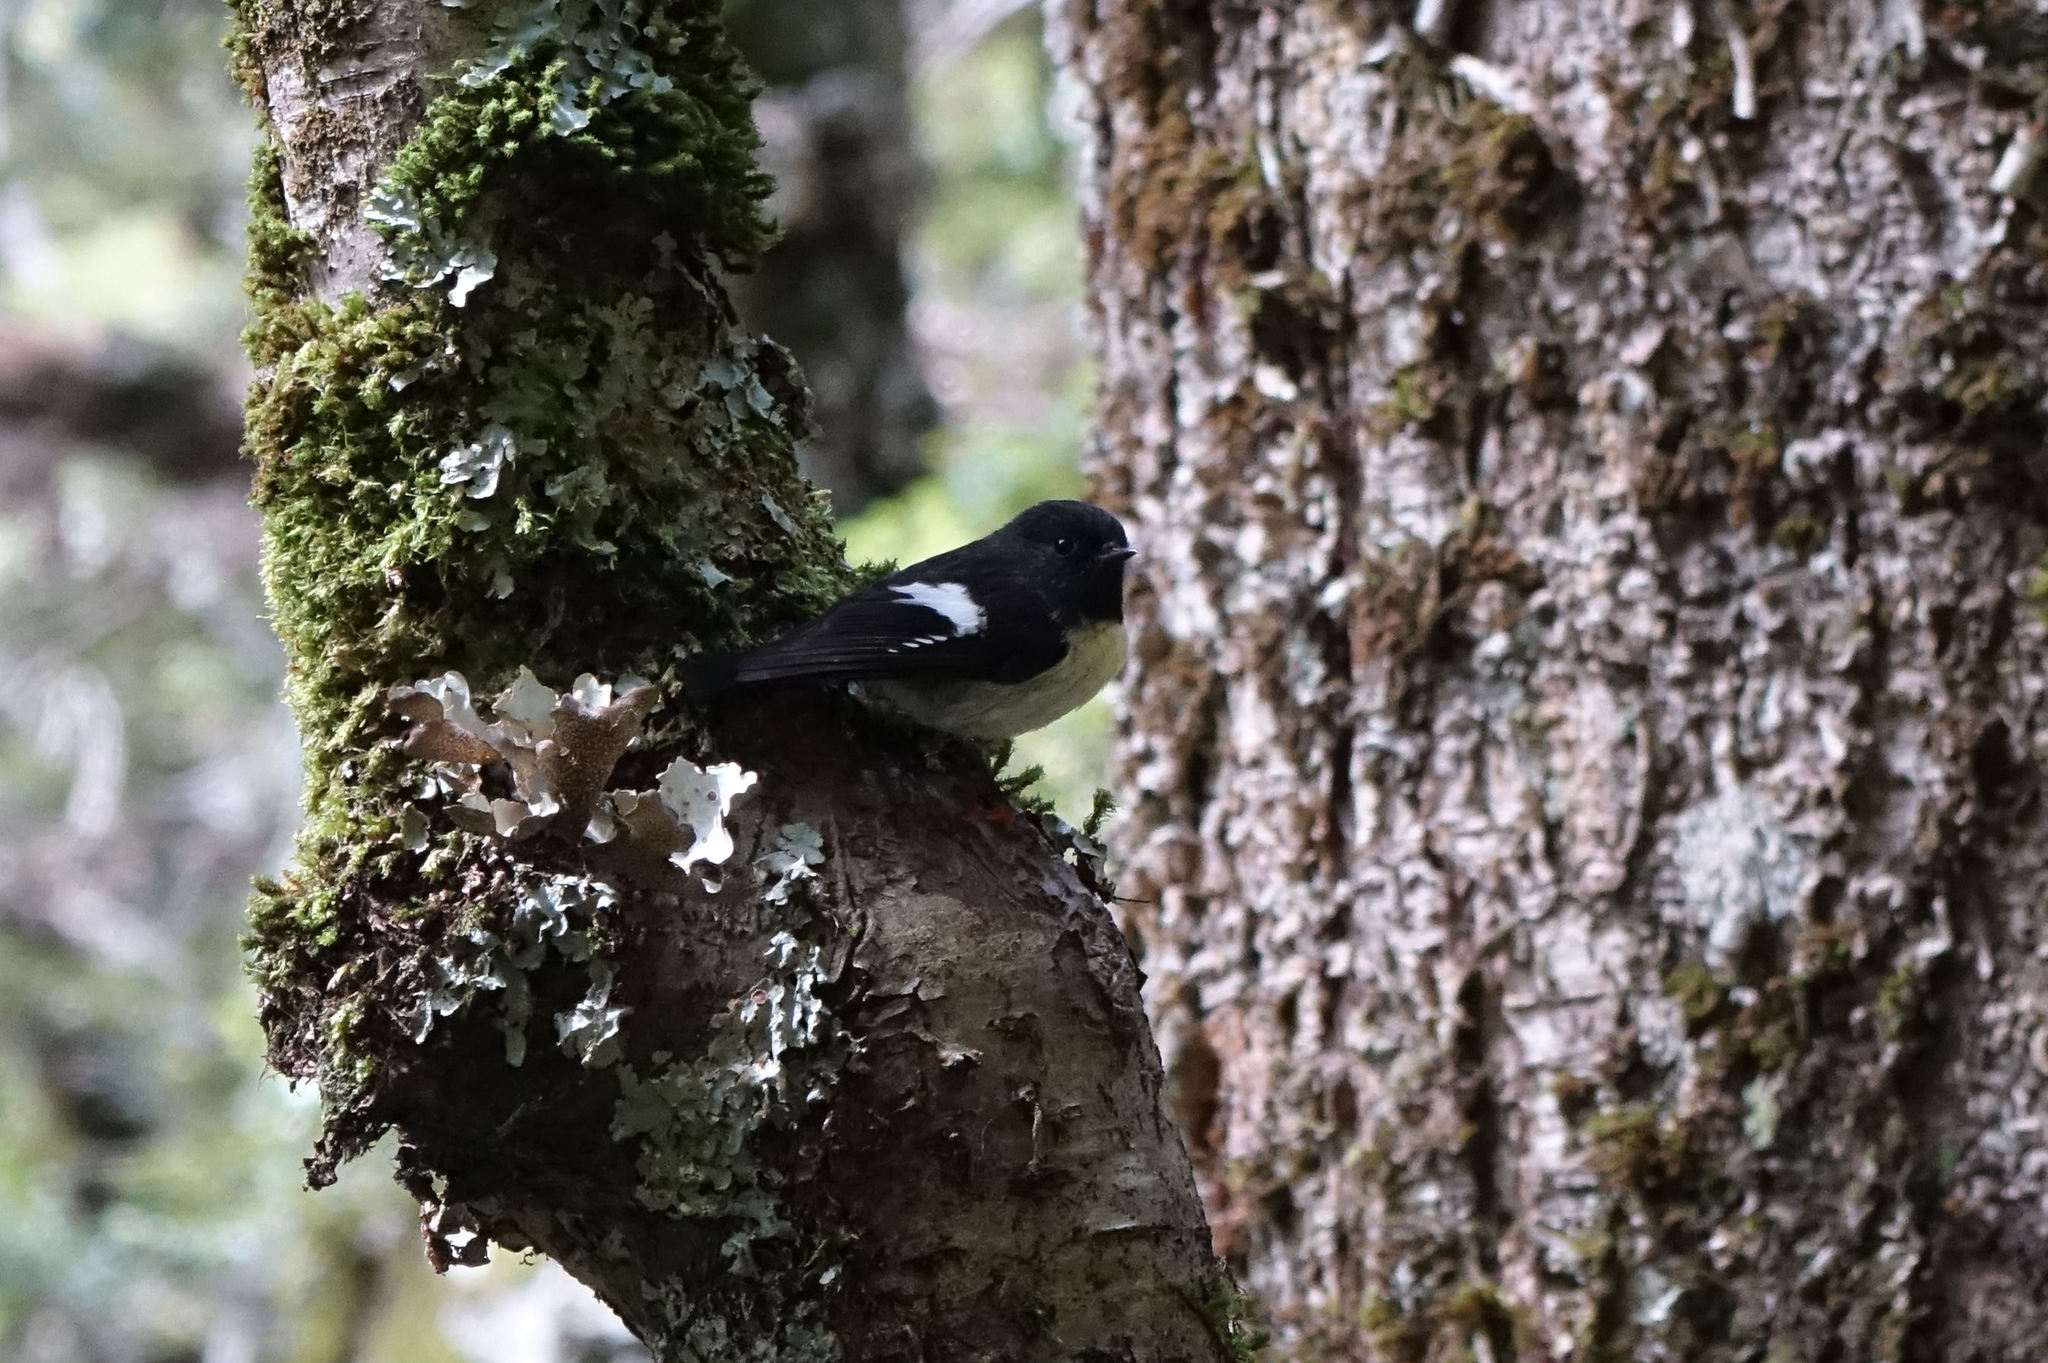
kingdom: Animalia
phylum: Chordata
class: Aves
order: Passeriformes
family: Petroicidae
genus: Petroica
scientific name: Petroica macrocephala
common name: Tomtit
